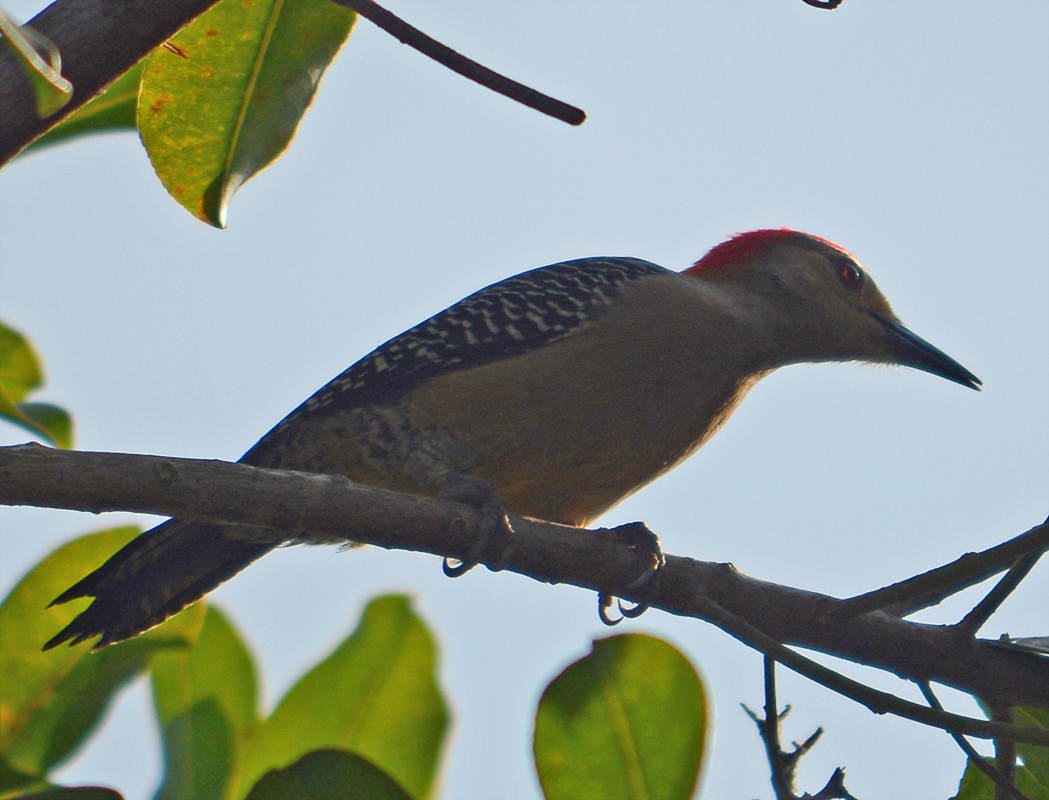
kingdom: Animalia
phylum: Chordata
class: Aves
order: Piciformes
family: Picidae
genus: Melanerpes
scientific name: Melanerpes aurifrons
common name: Golden-fronted woodpecker
